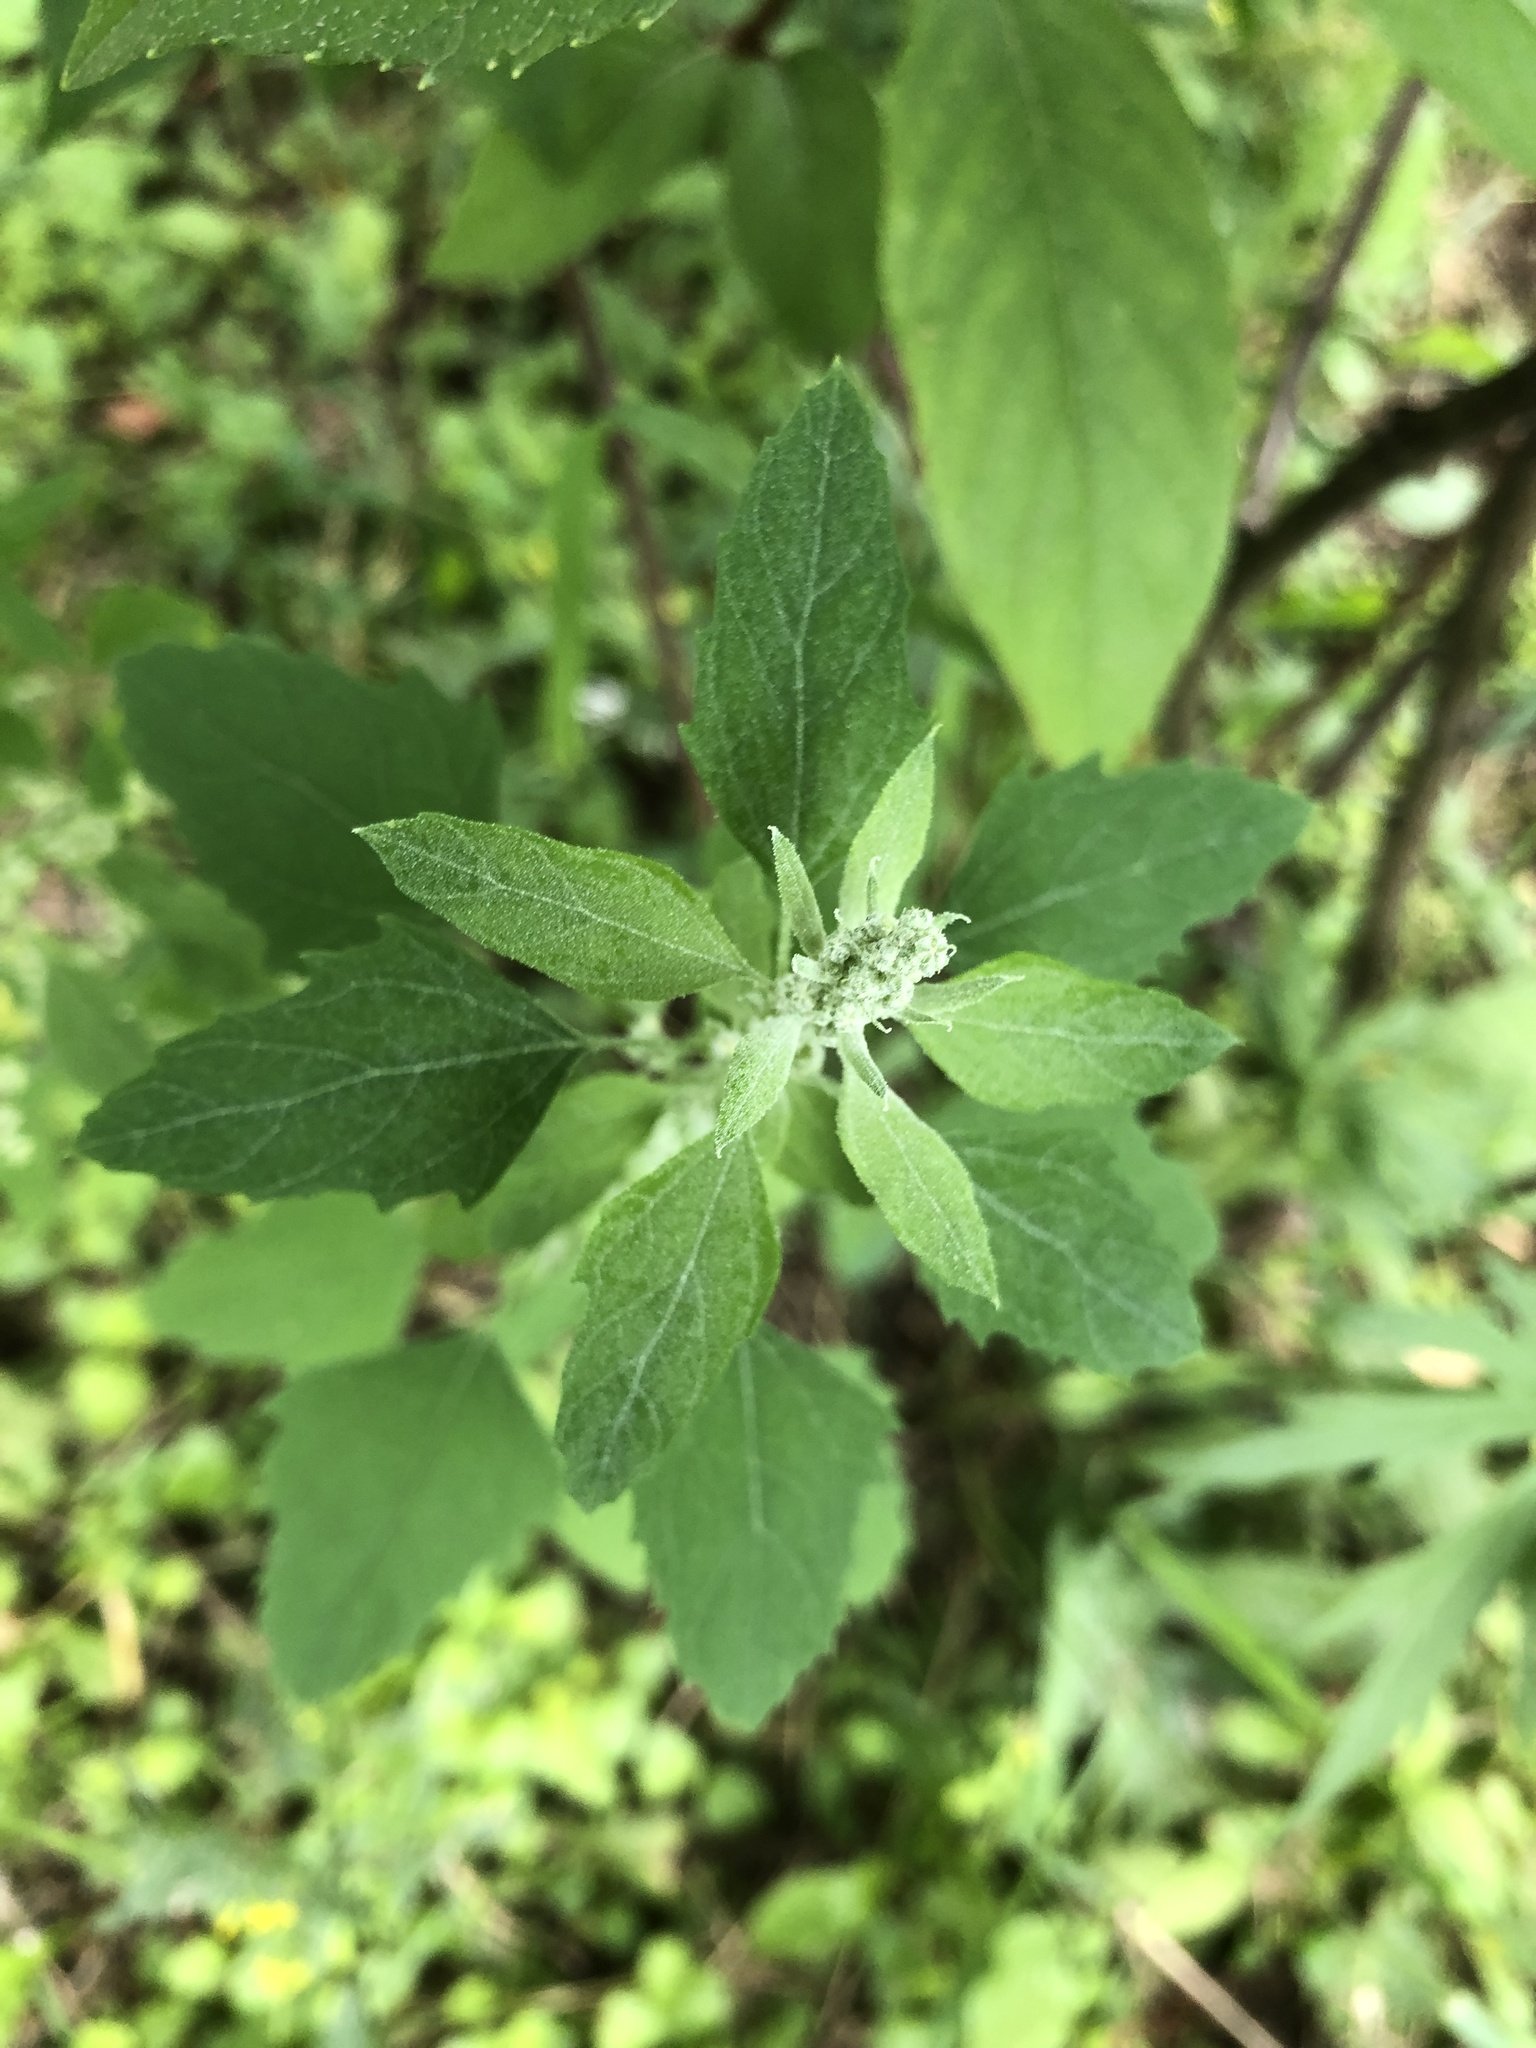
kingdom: Plantae
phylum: Tracheophyta
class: Magnoliopsida
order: Caryophyllales
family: Amaranthaceae
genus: Chenopodium
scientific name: Chenopodium album
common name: Fat-hen
